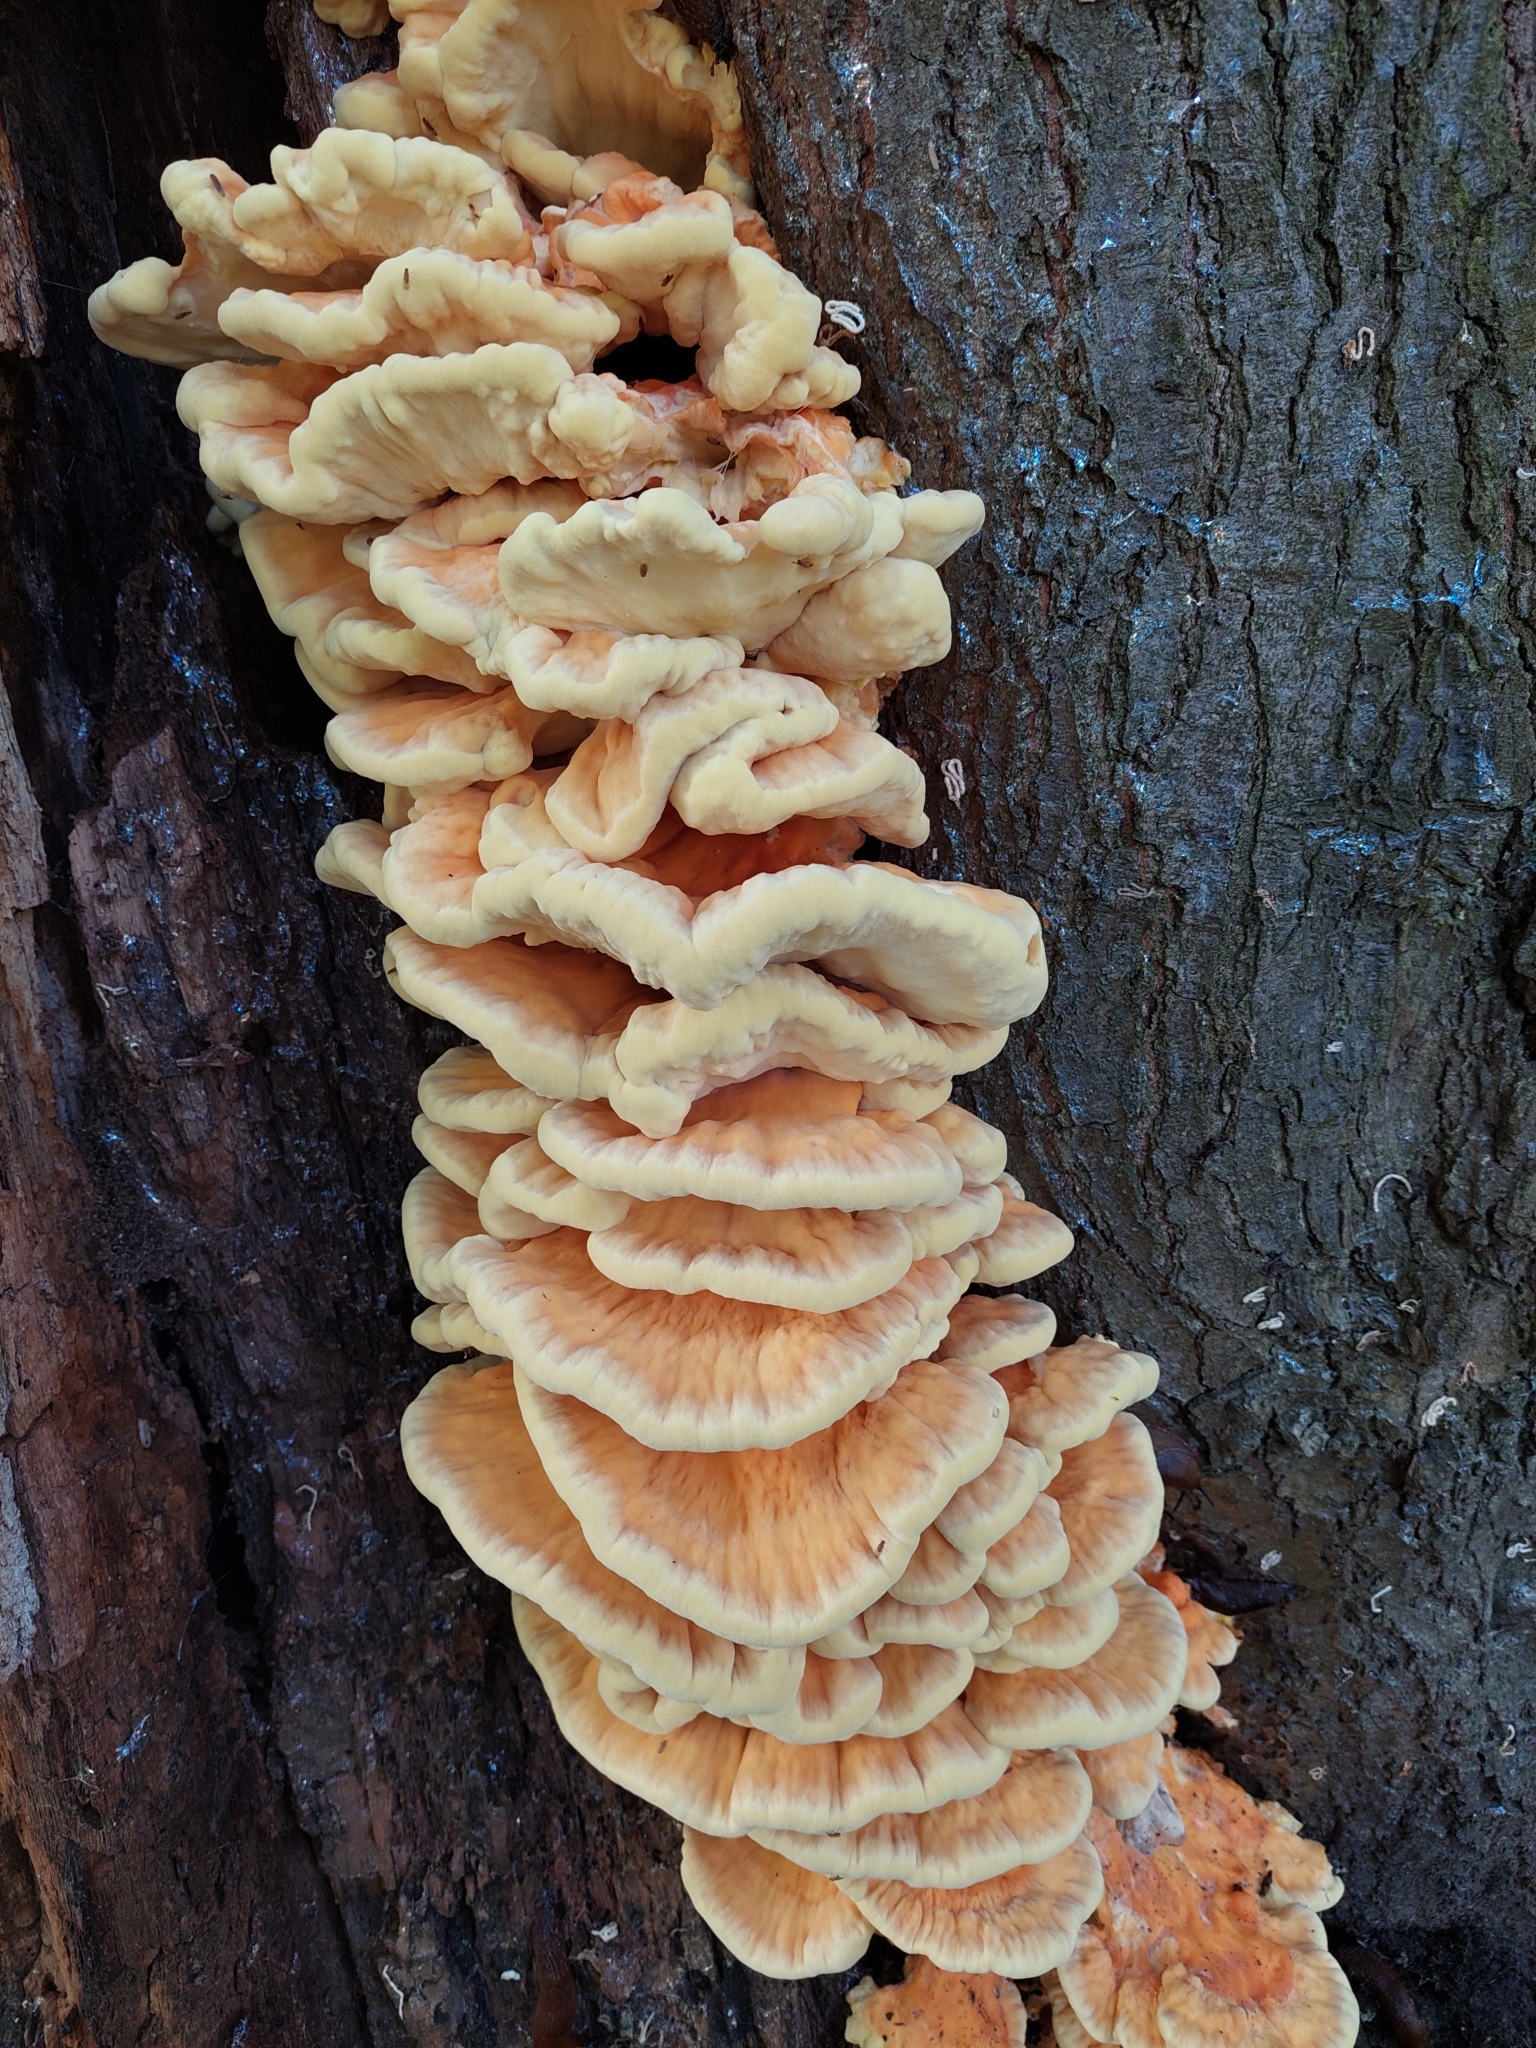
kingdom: Fungi
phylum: Basidiomycota
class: Agaricomycetes
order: Polyporales
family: Laetiporaceae
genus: Laetiporus
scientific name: Laetiporus sulphureus
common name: Chicken of the woods
